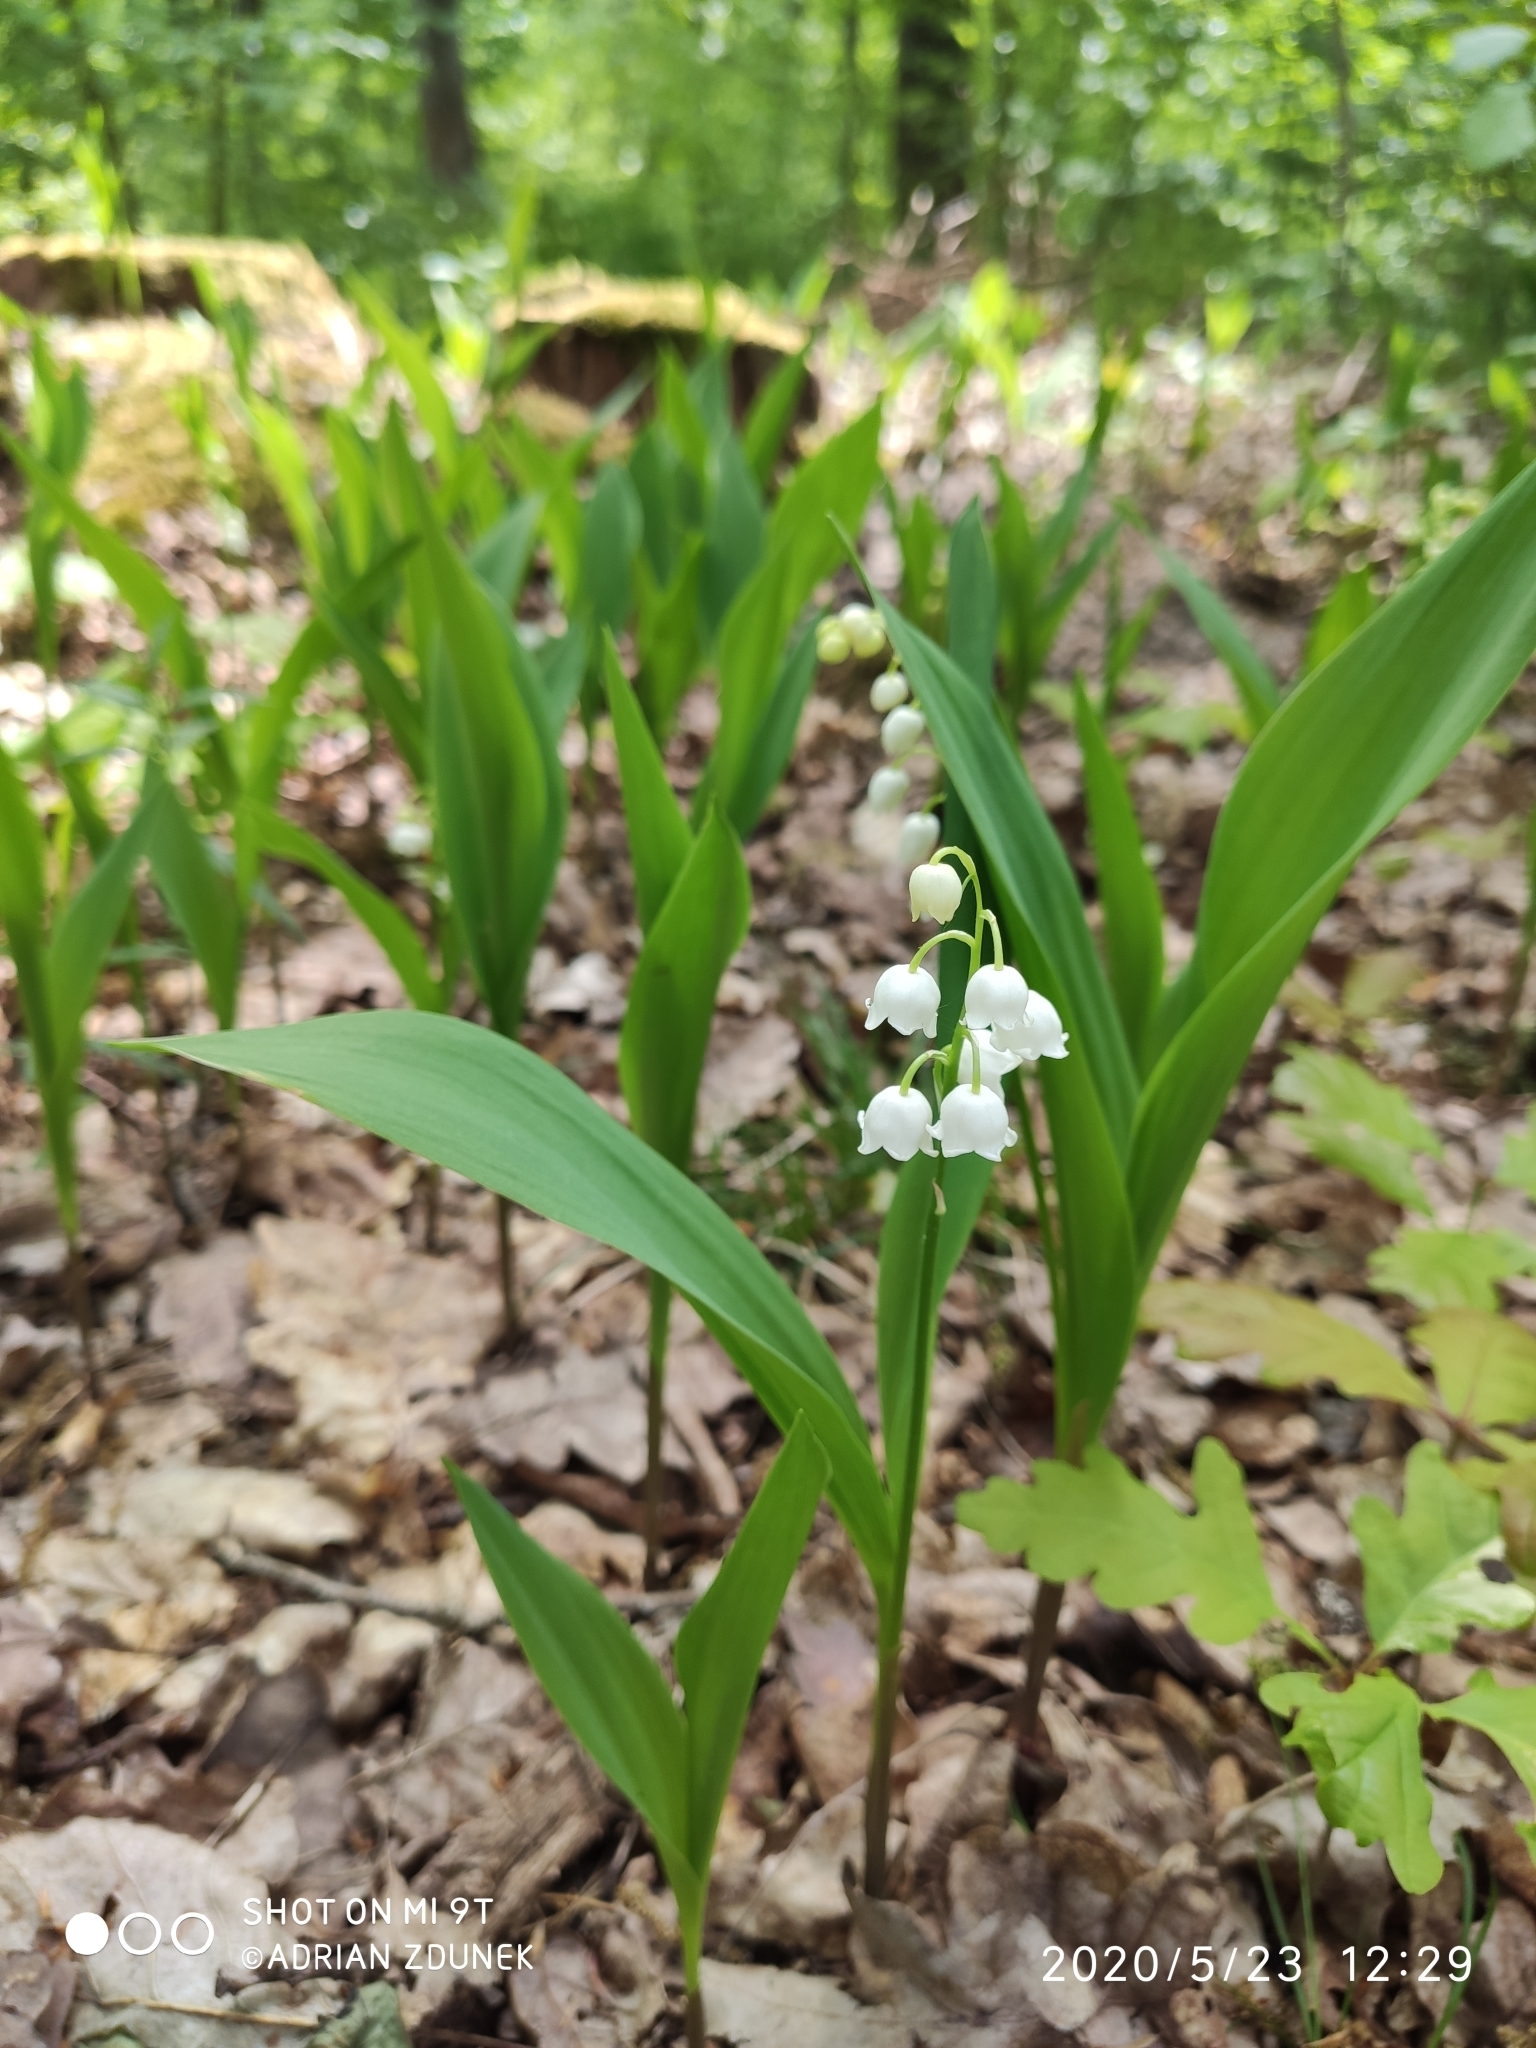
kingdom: Plantae
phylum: Tracheophyta
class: Liliopsida
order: Asparagales
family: Asparagaceae
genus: Convallaria
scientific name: Convallaria majalis
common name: Lily-of-the-valley
